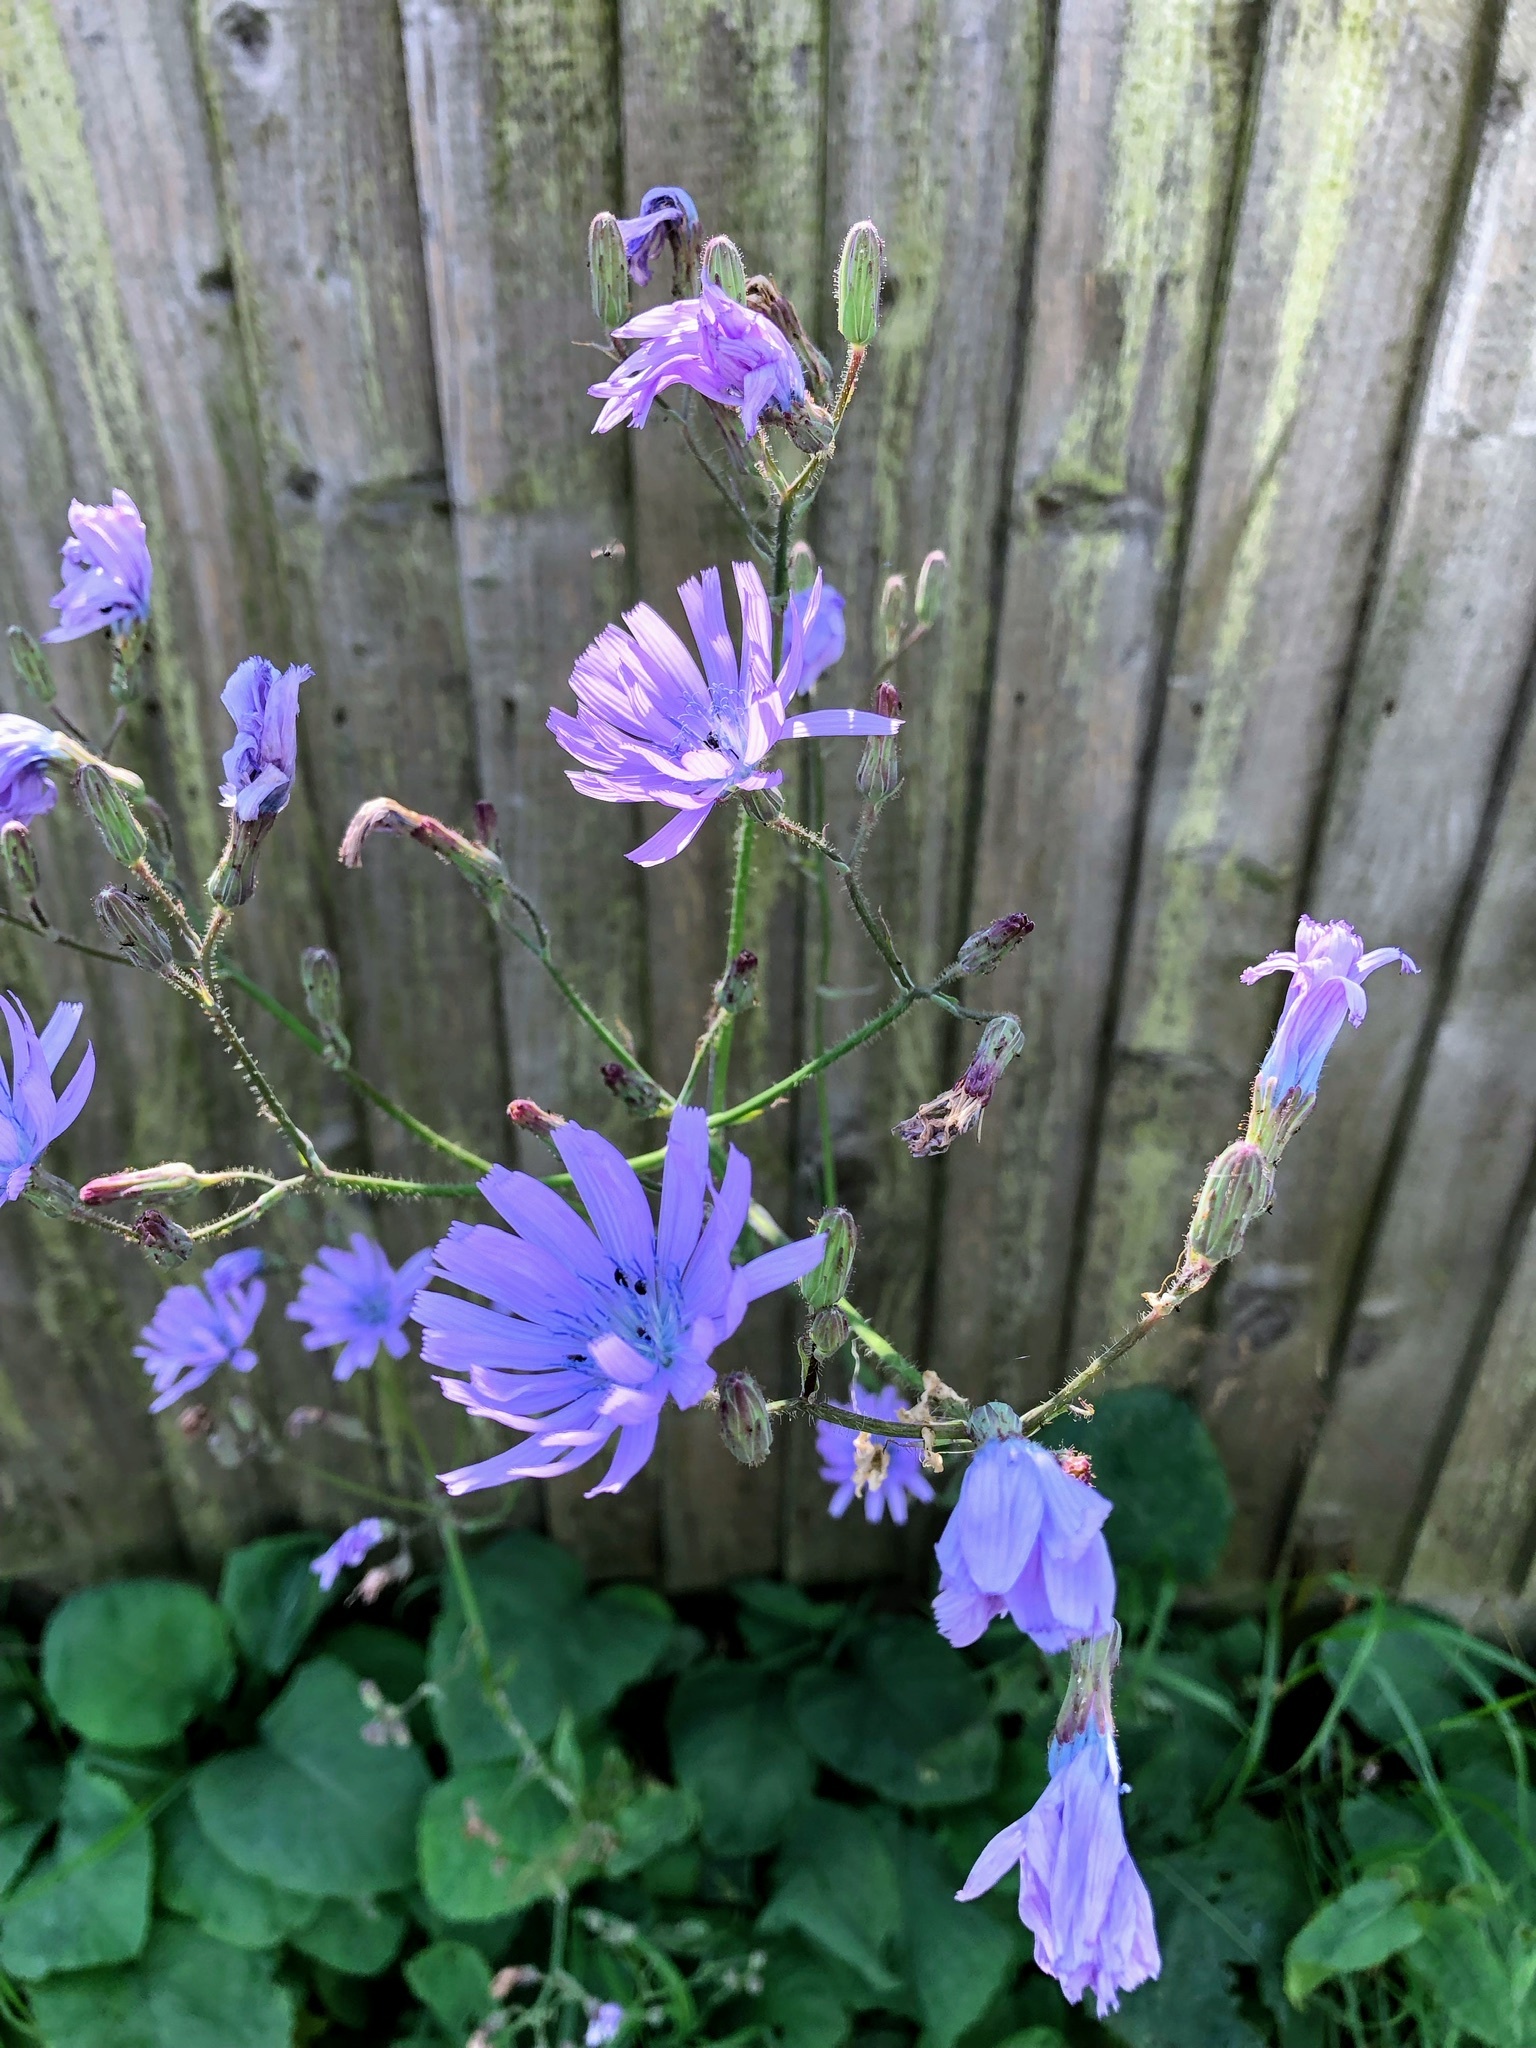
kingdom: Plantae
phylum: Tracheophyta
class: Magnoliopsida
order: Asterales
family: Asteraceae
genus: Lactuca
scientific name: Lactuca macrophylla
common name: Common blue-sow-thistle
